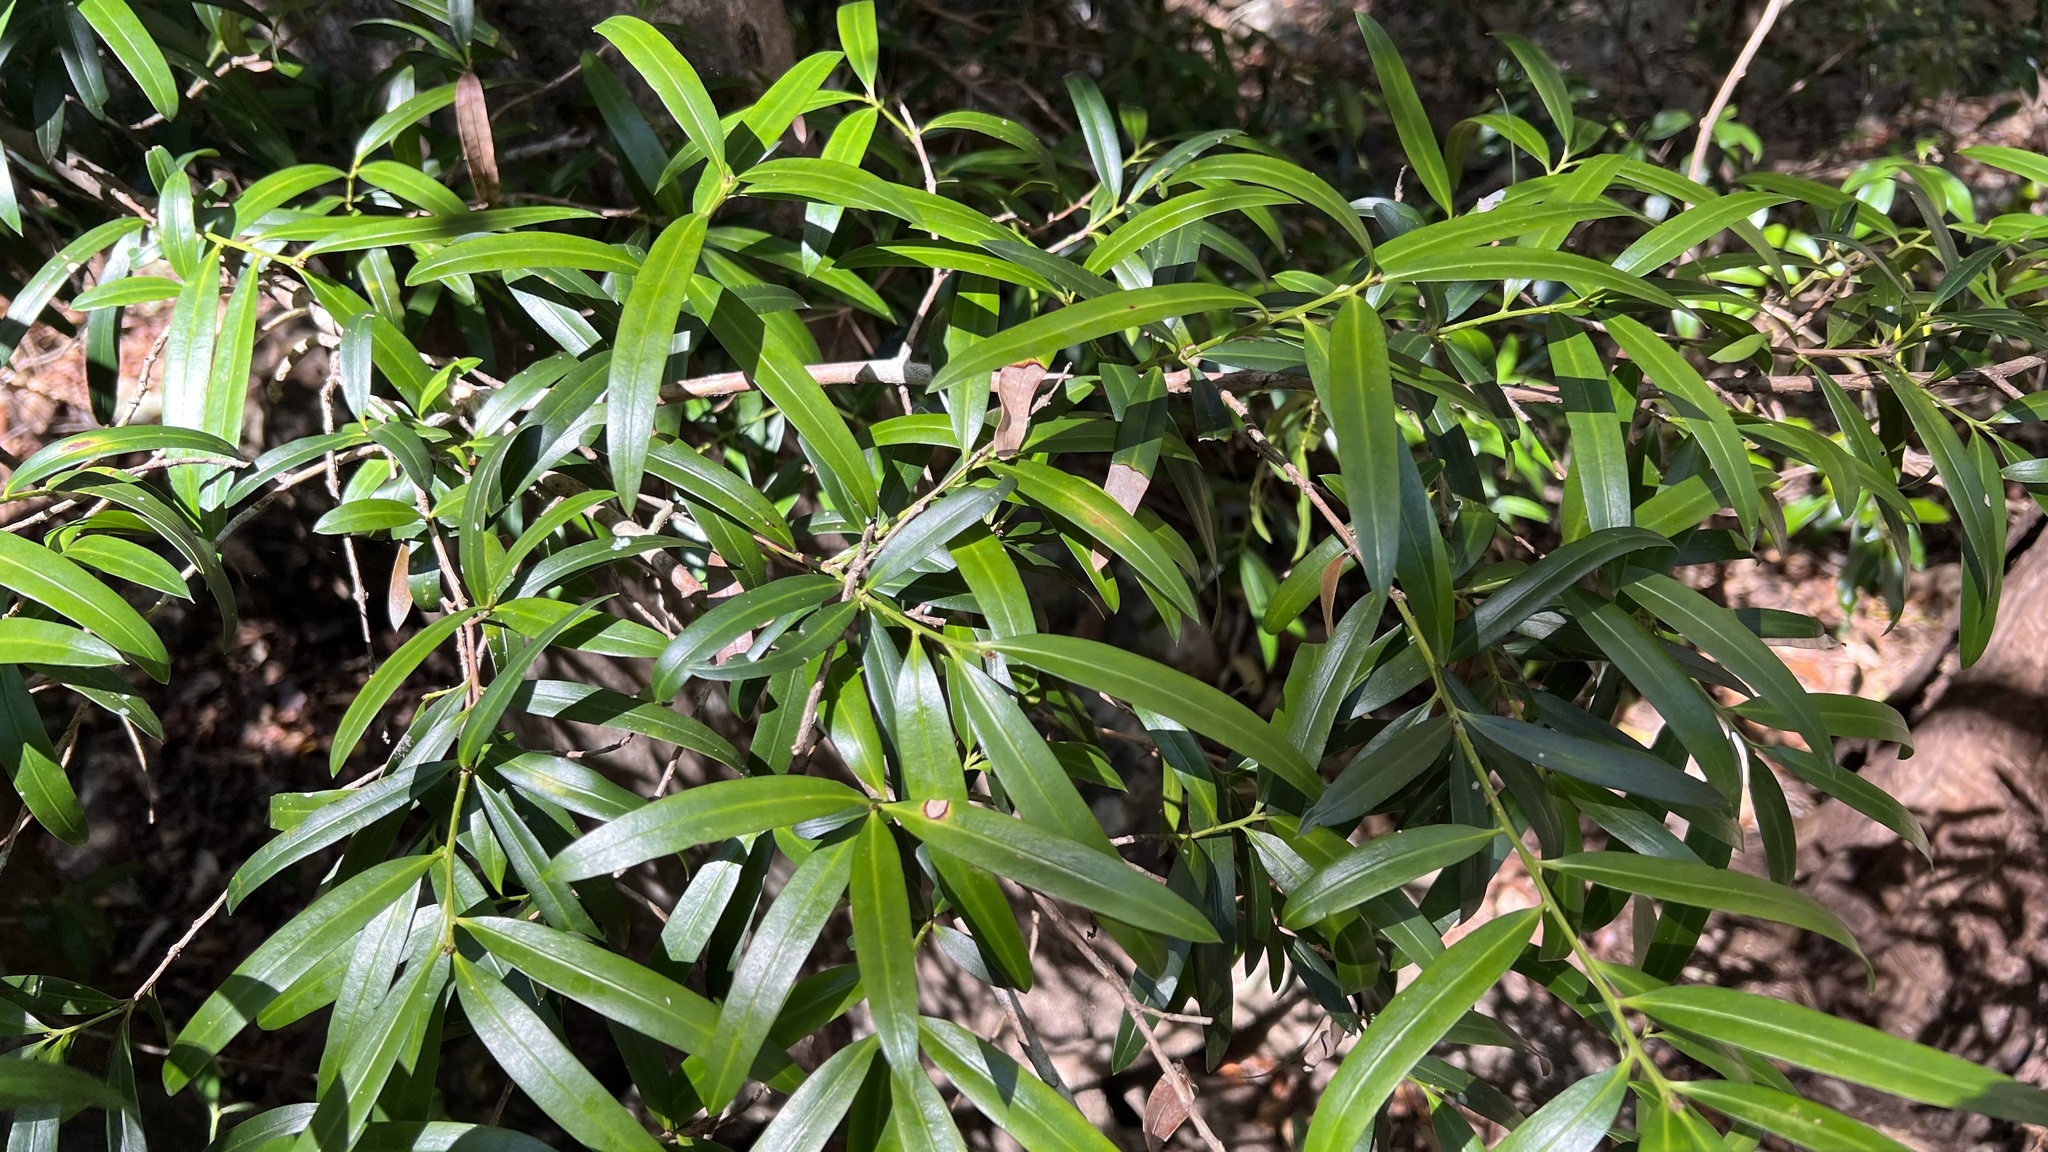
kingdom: Plantae
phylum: Tracheophyta
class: Pinopsida
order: Pinales
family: Podocarpaceae
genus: Podocarpus
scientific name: Podocarpus elatus
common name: Plum pine
